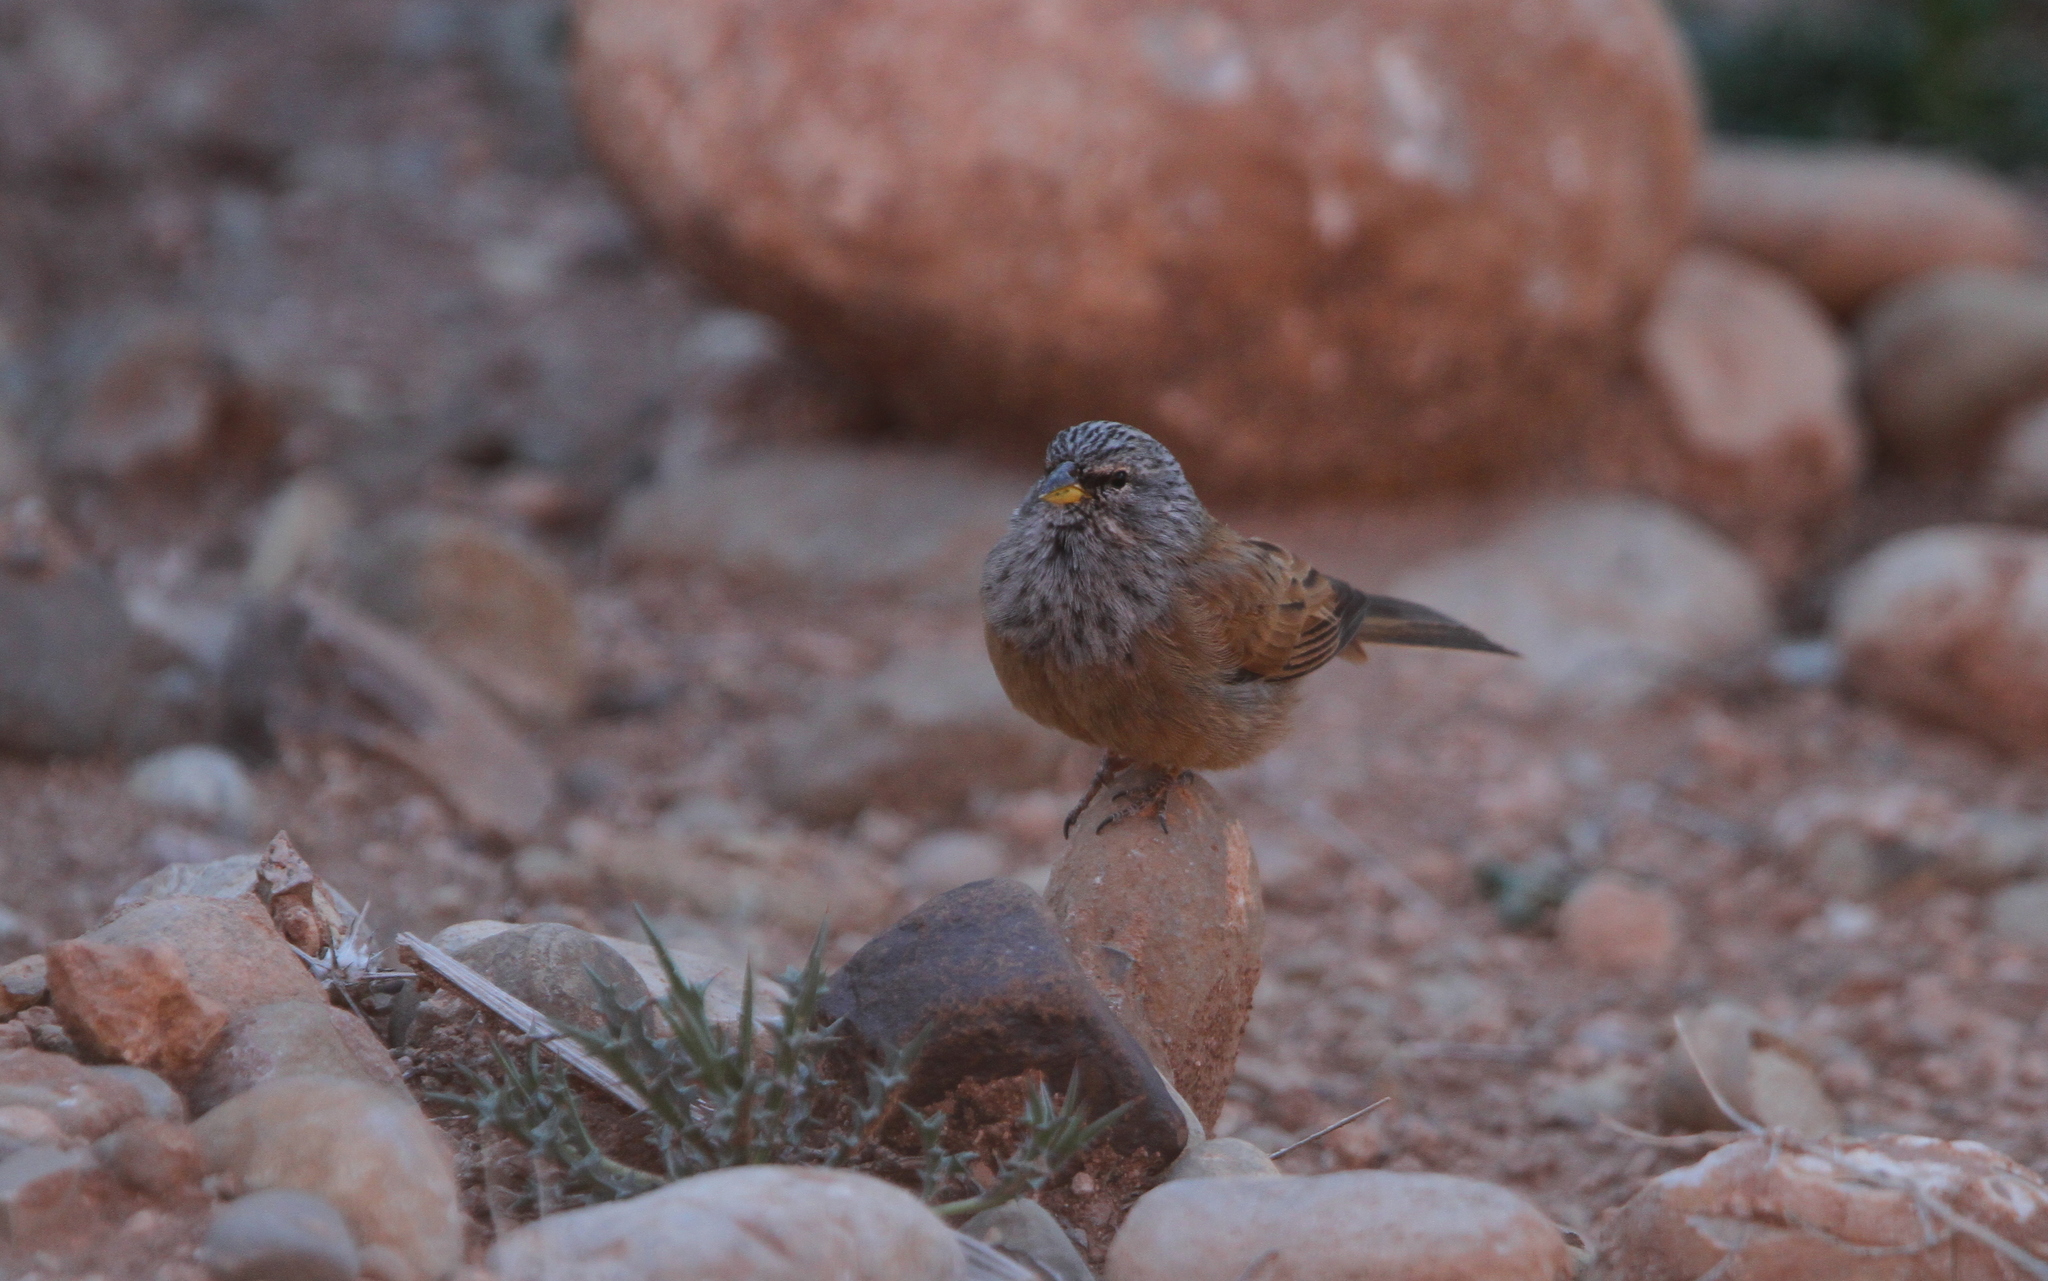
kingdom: Animalia
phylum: Chordata
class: Aves
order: Passeriformes
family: Emberizidae
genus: Emberiza
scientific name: Emberiza sahari
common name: House bunting
